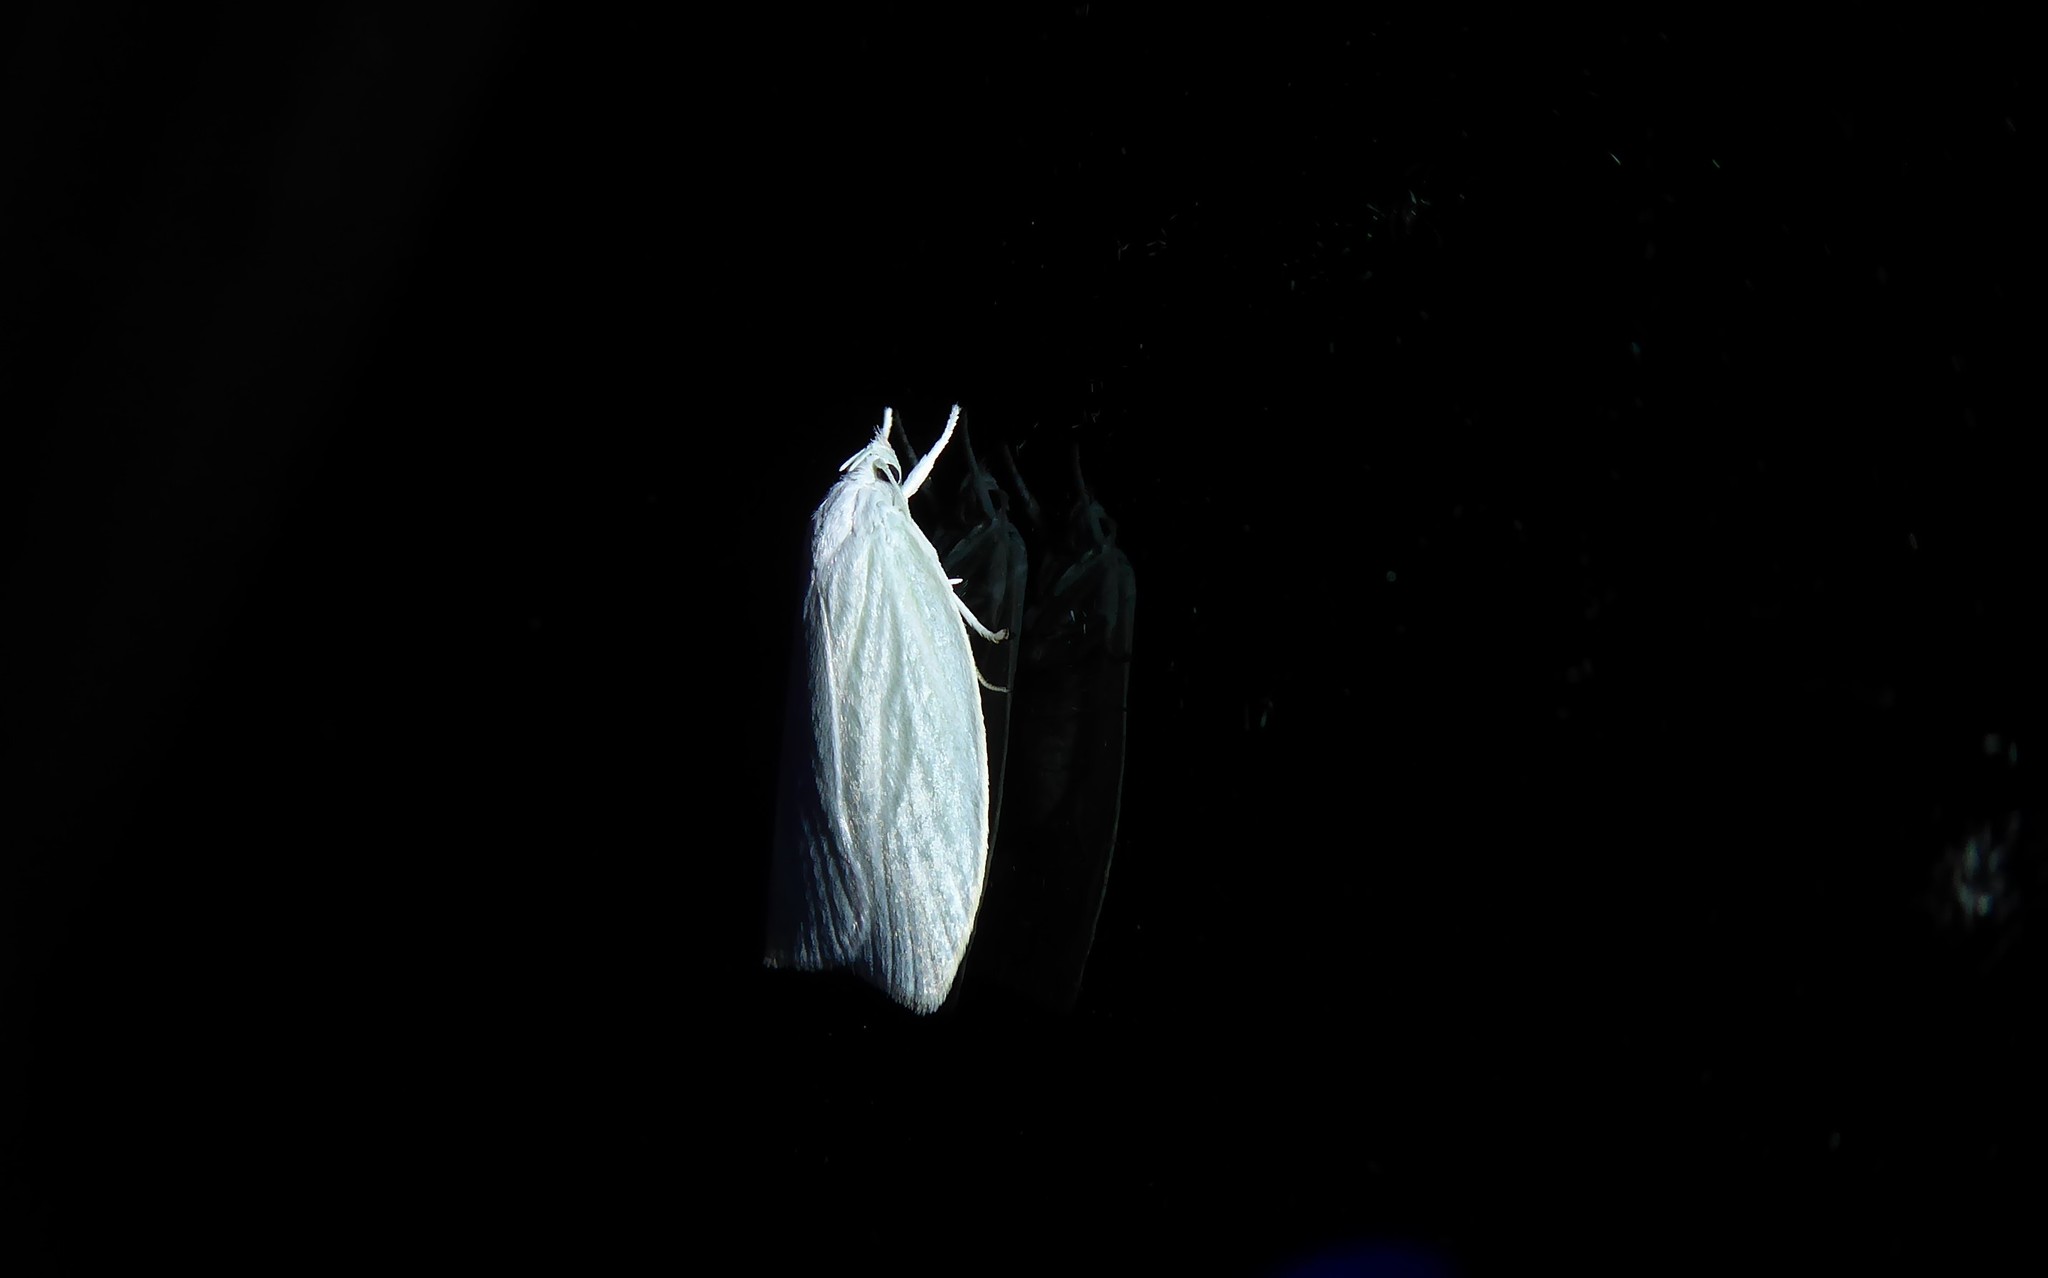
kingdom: Animalia
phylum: Arthropoda
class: Insecta
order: Lepidoptera
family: Oecophoridae
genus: Nymphostola
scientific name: Nymphostola galactina
